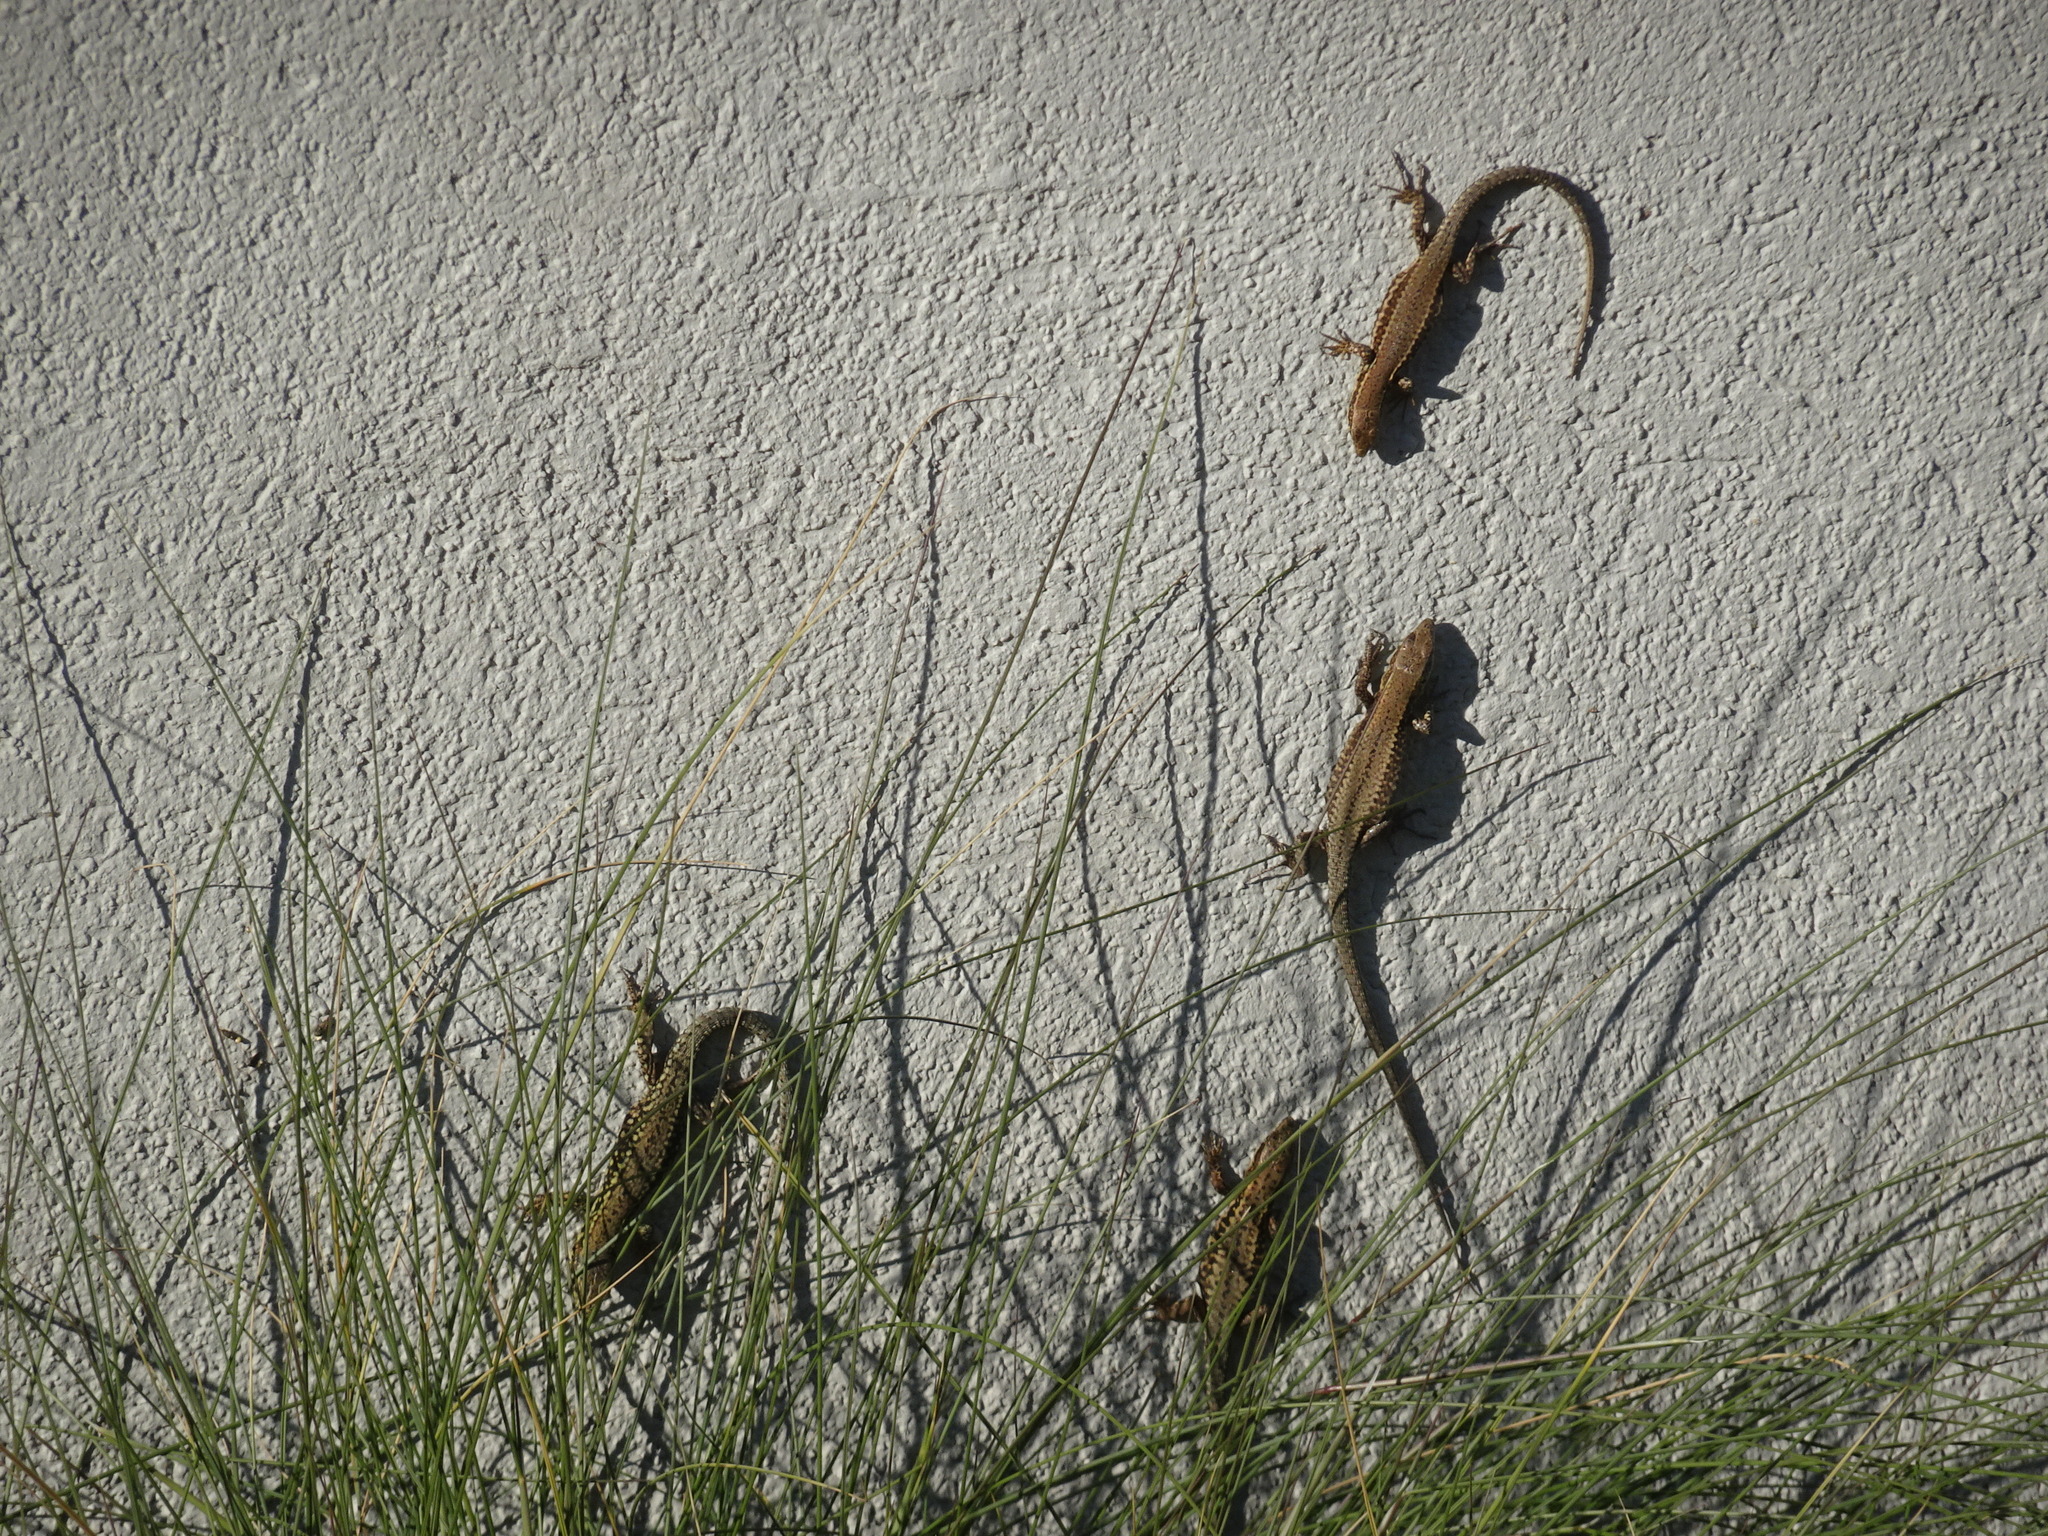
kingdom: Animalia
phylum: Chordata
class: Squamata
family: Lacertidae
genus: Podarcis
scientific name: Podarcis muralis
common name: Common wall lizard
